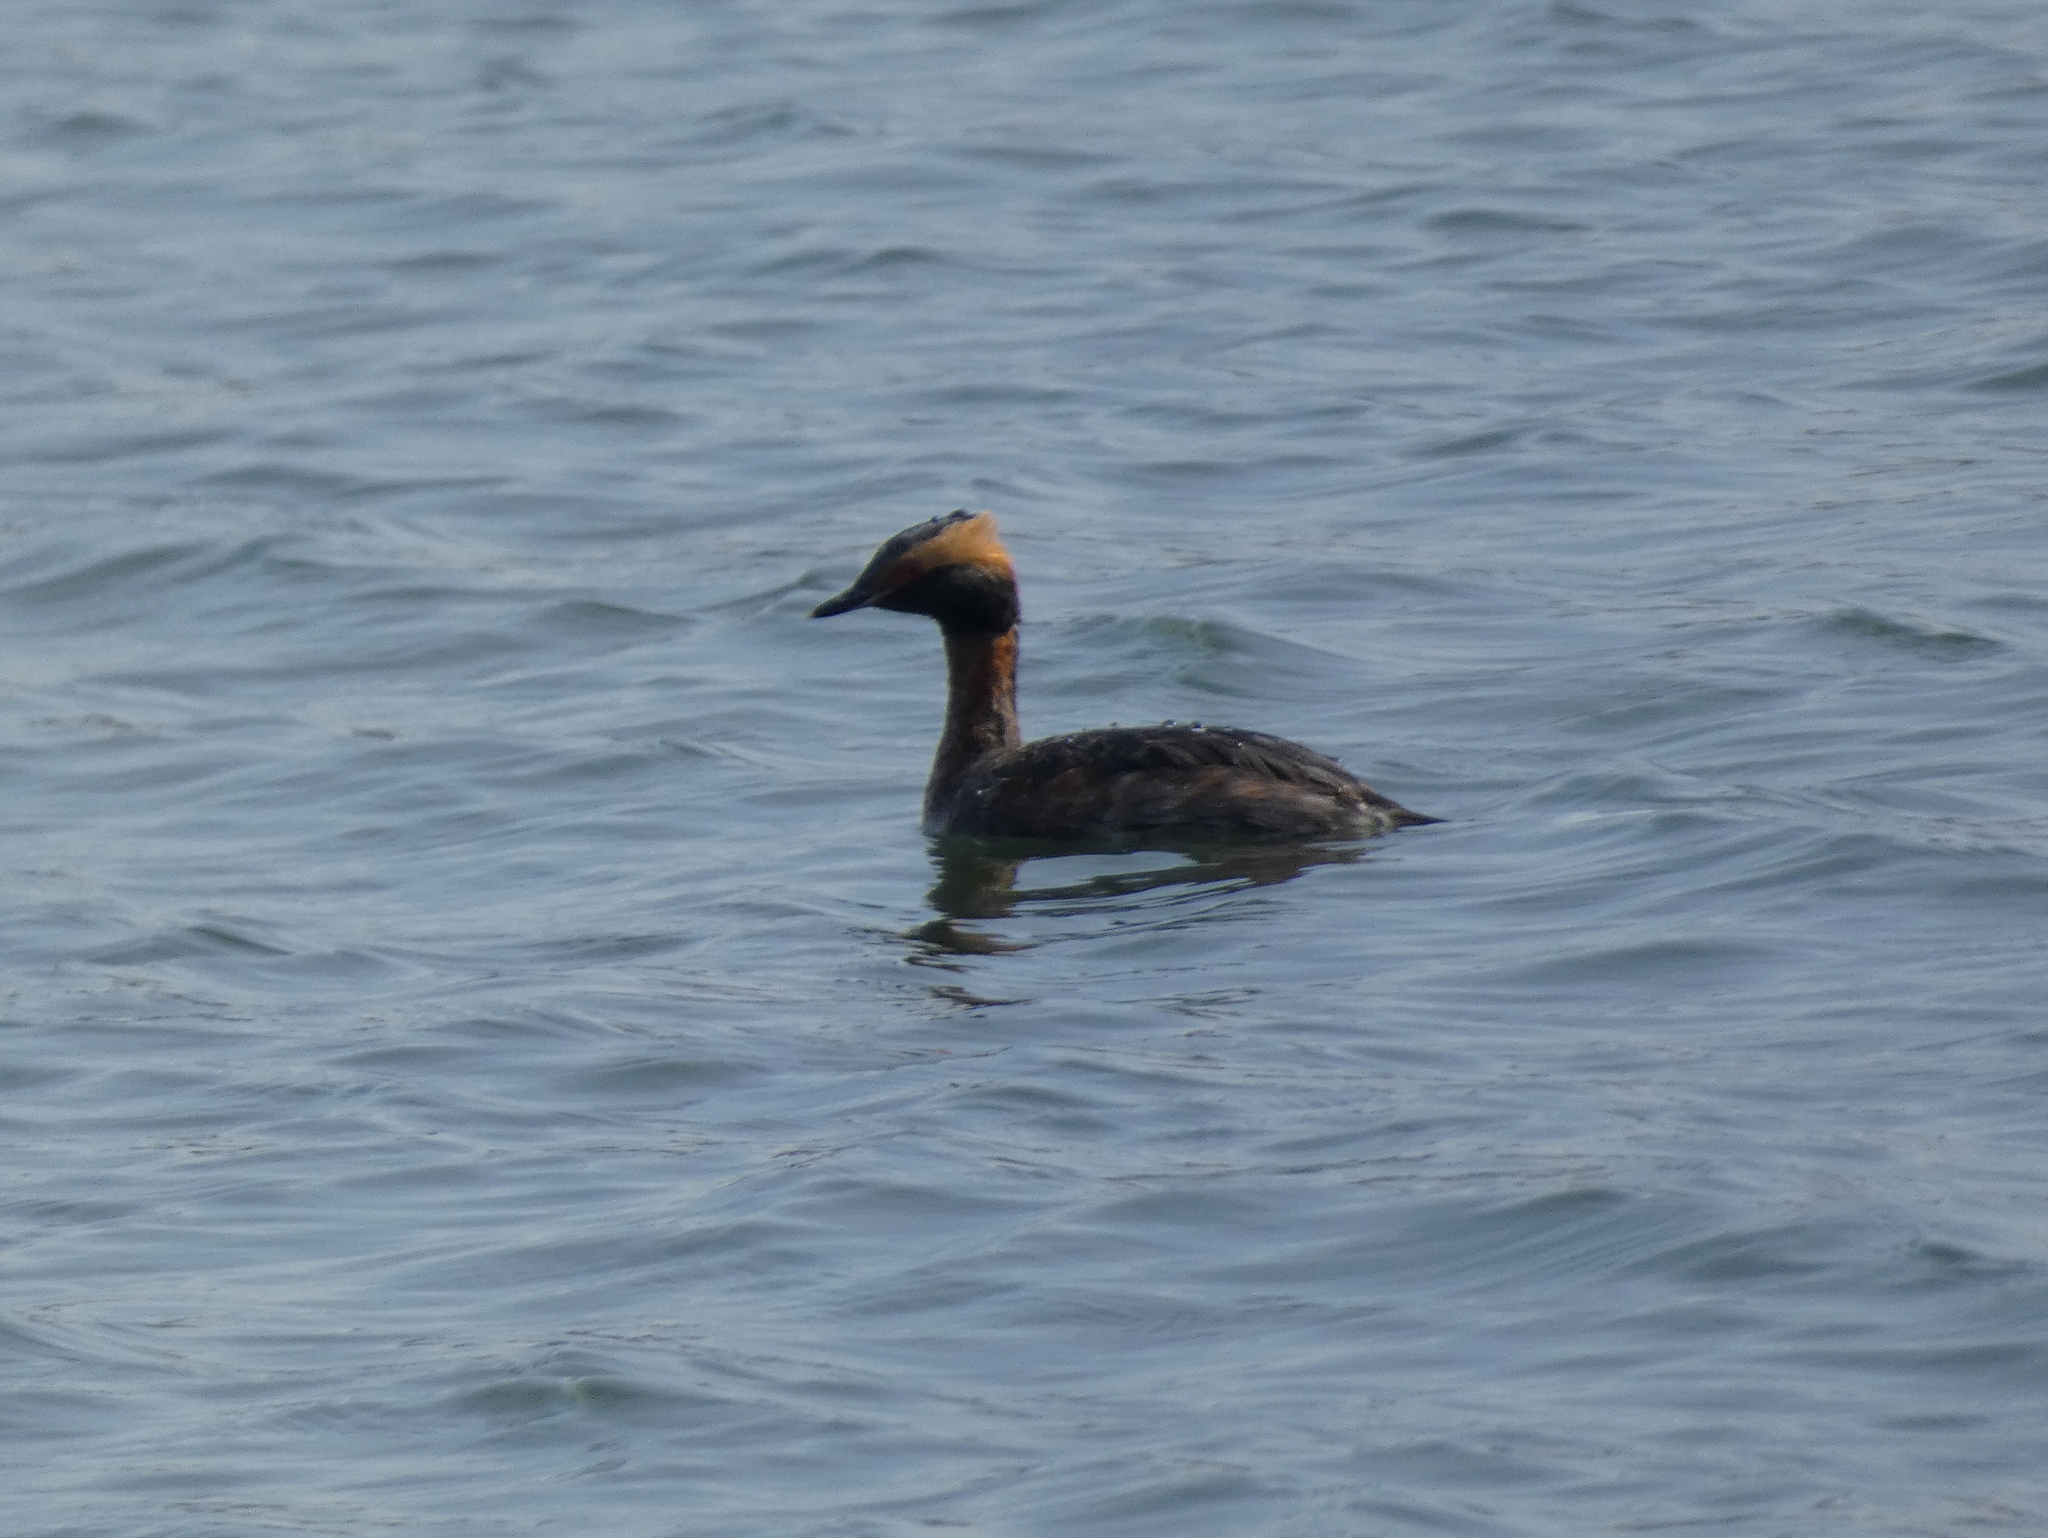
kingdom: Animalia
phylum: Chordata
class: Aves
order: Podicipediformes
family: Podicipedidae
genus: Podiceps
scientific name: Podiceps auritus
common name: Horned grebe
